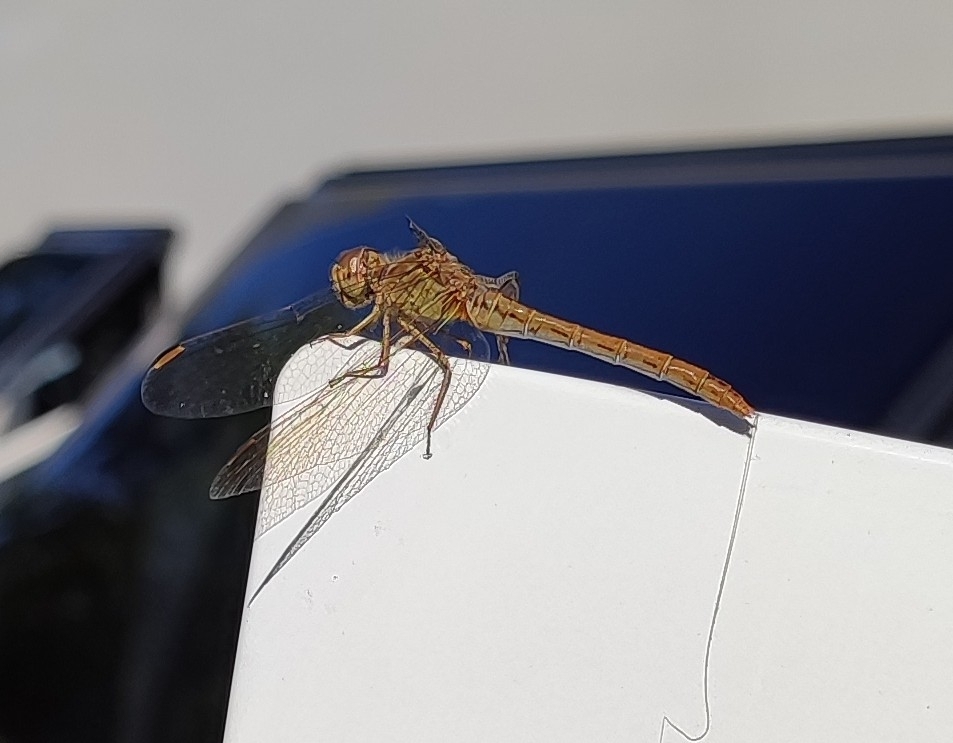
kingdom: Animalia
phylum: Arthropoda
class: Insecta
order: Odonata
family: Libellulidae
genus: Sympetrum
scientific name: Sympetrum meridionale
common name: Southern darter
